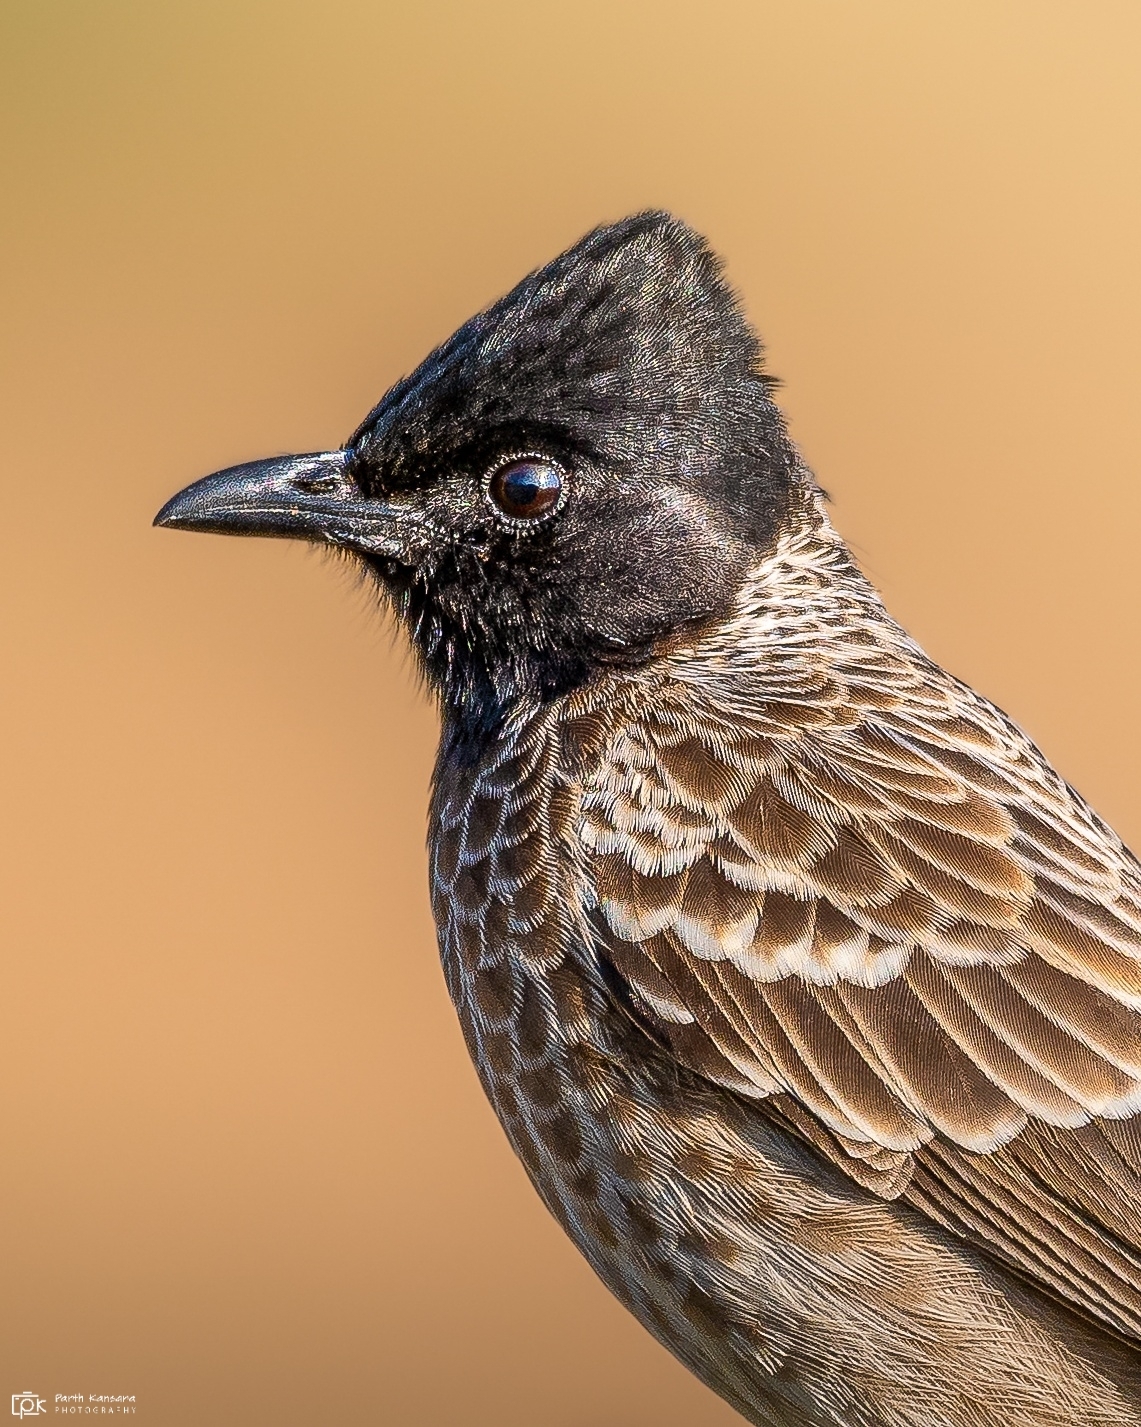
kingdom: Animalia
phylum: Chordata
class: Aves
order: Passeriformes
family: Pycnonotidae
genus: Pycnonotus
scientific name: Pycnonotus cafer
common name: Red-vented bulbul
